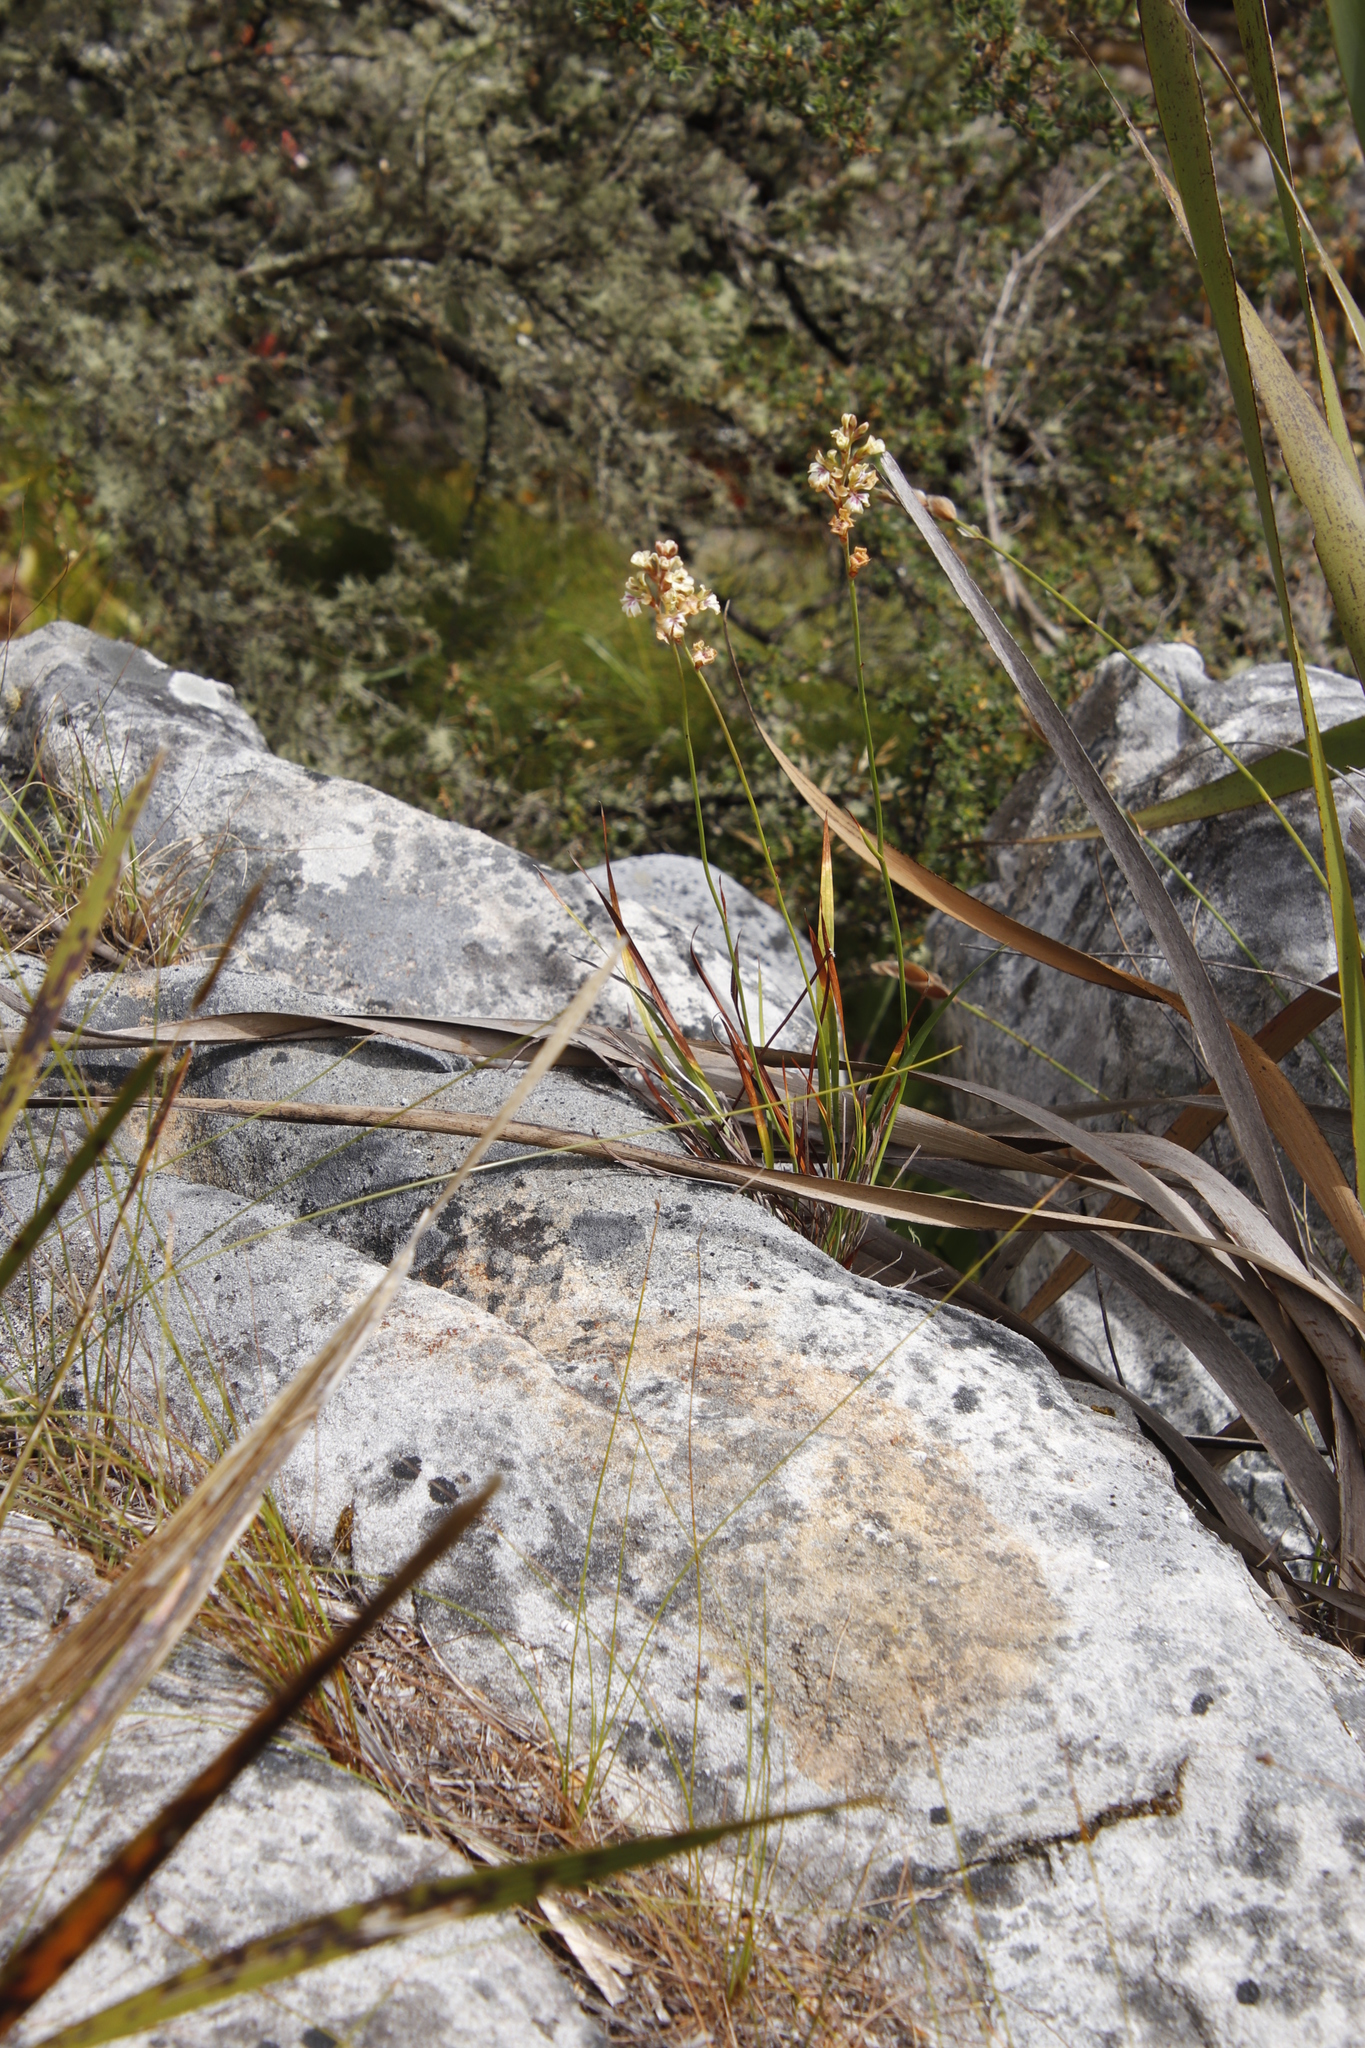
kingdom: Plantae
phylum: Tracheophyta
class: Liliopsida
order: Asparagales
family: Iridaceae
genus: Tritoniopsis
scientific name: Tritoniopsis unguicularis
